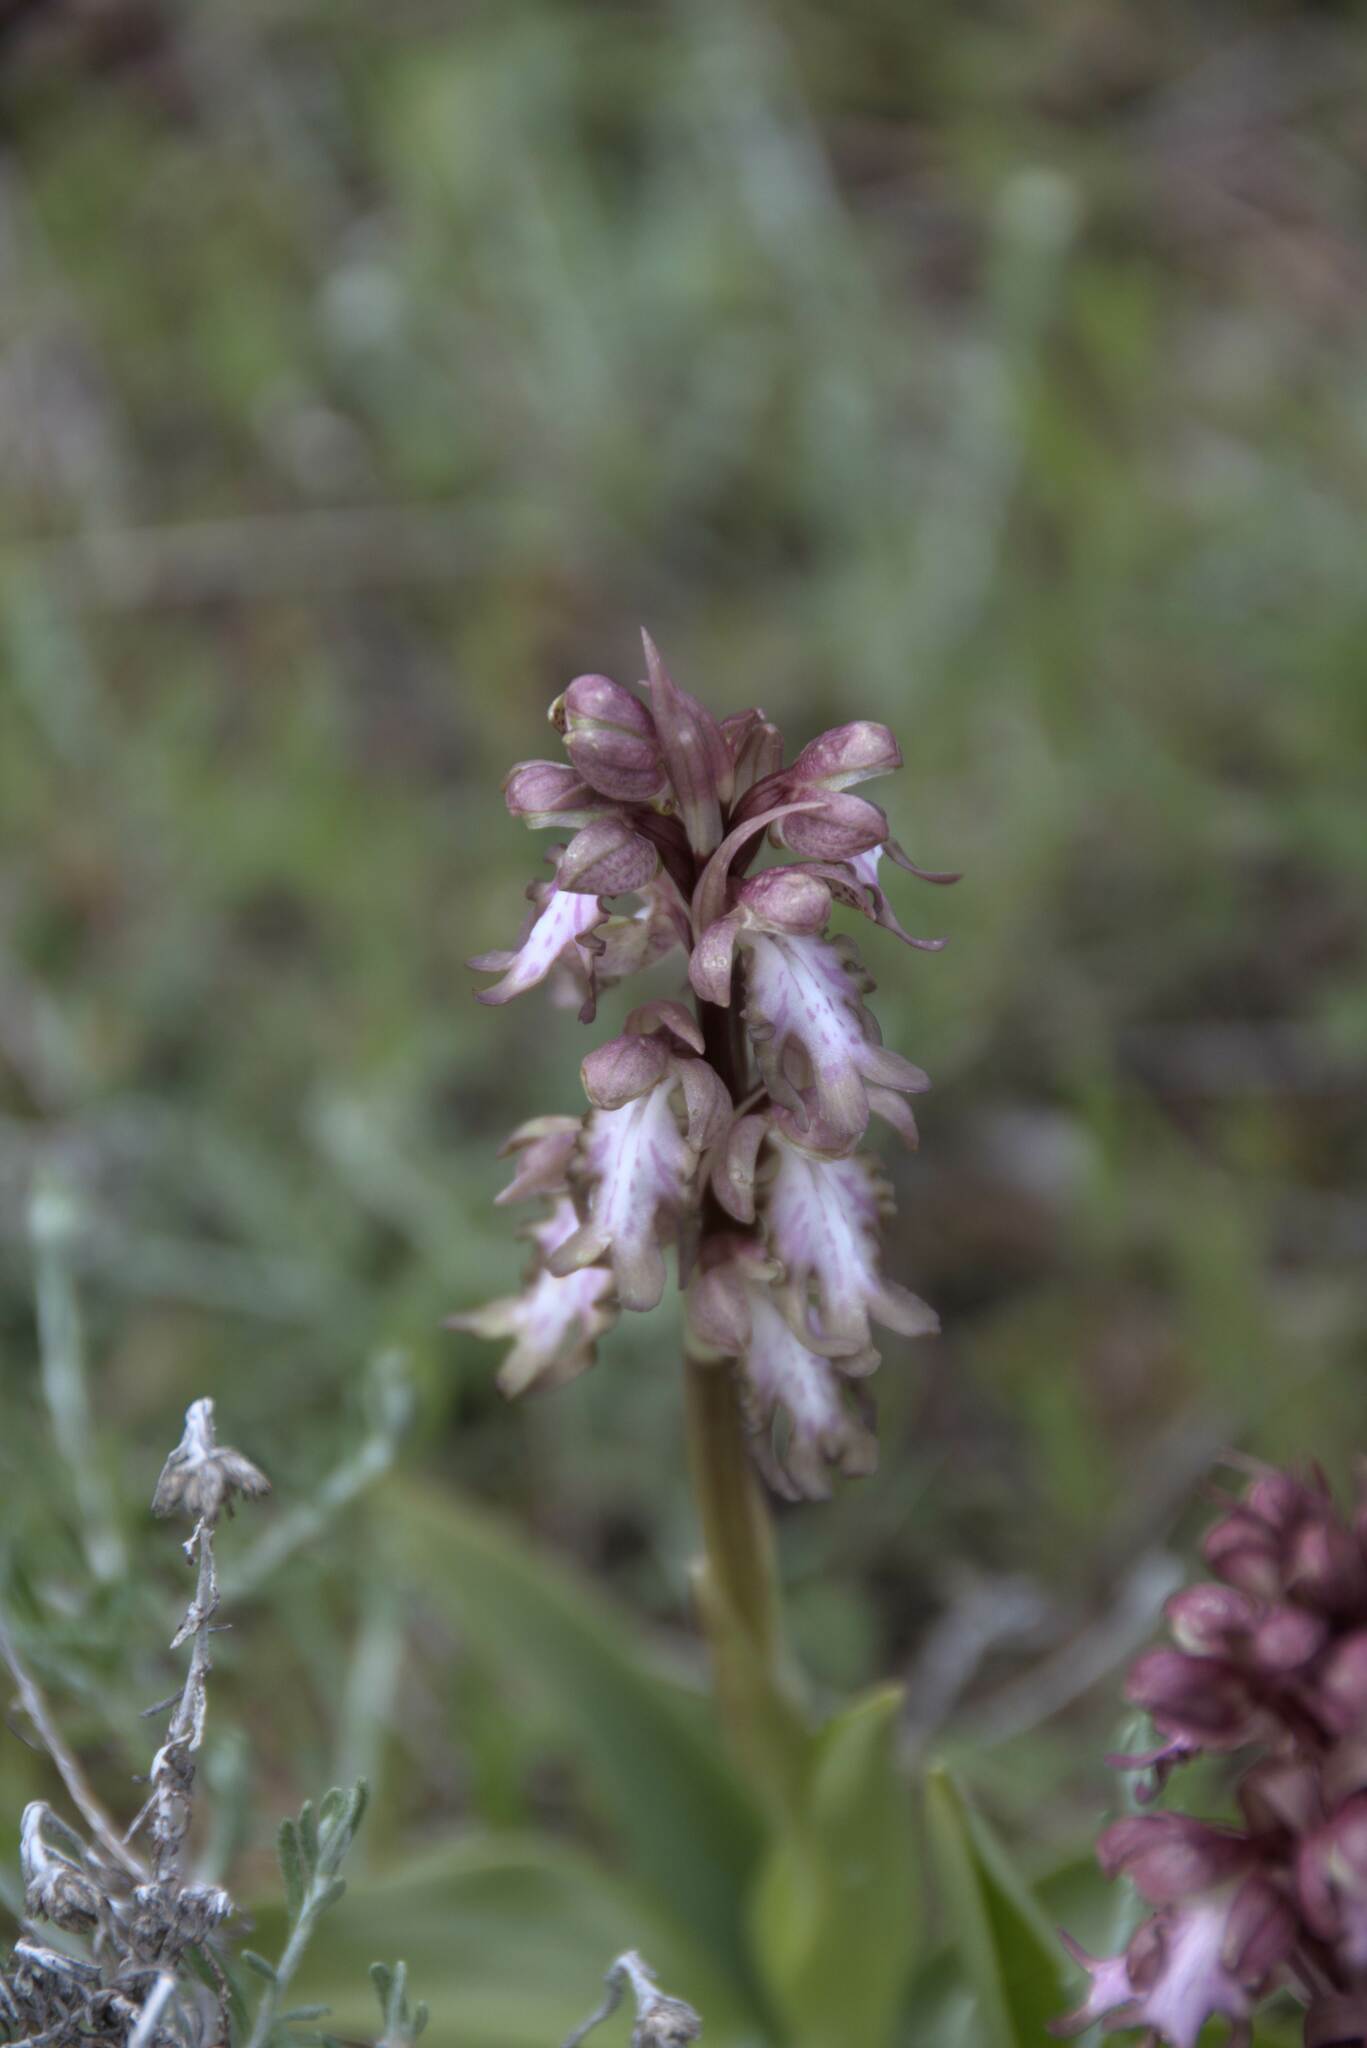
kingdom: Plantae
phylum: Tracheophyta
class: Liliopsida
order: Asparagales
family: Orchidaceae
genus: Himantoglossum
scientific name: Himantoglossum robertianum
